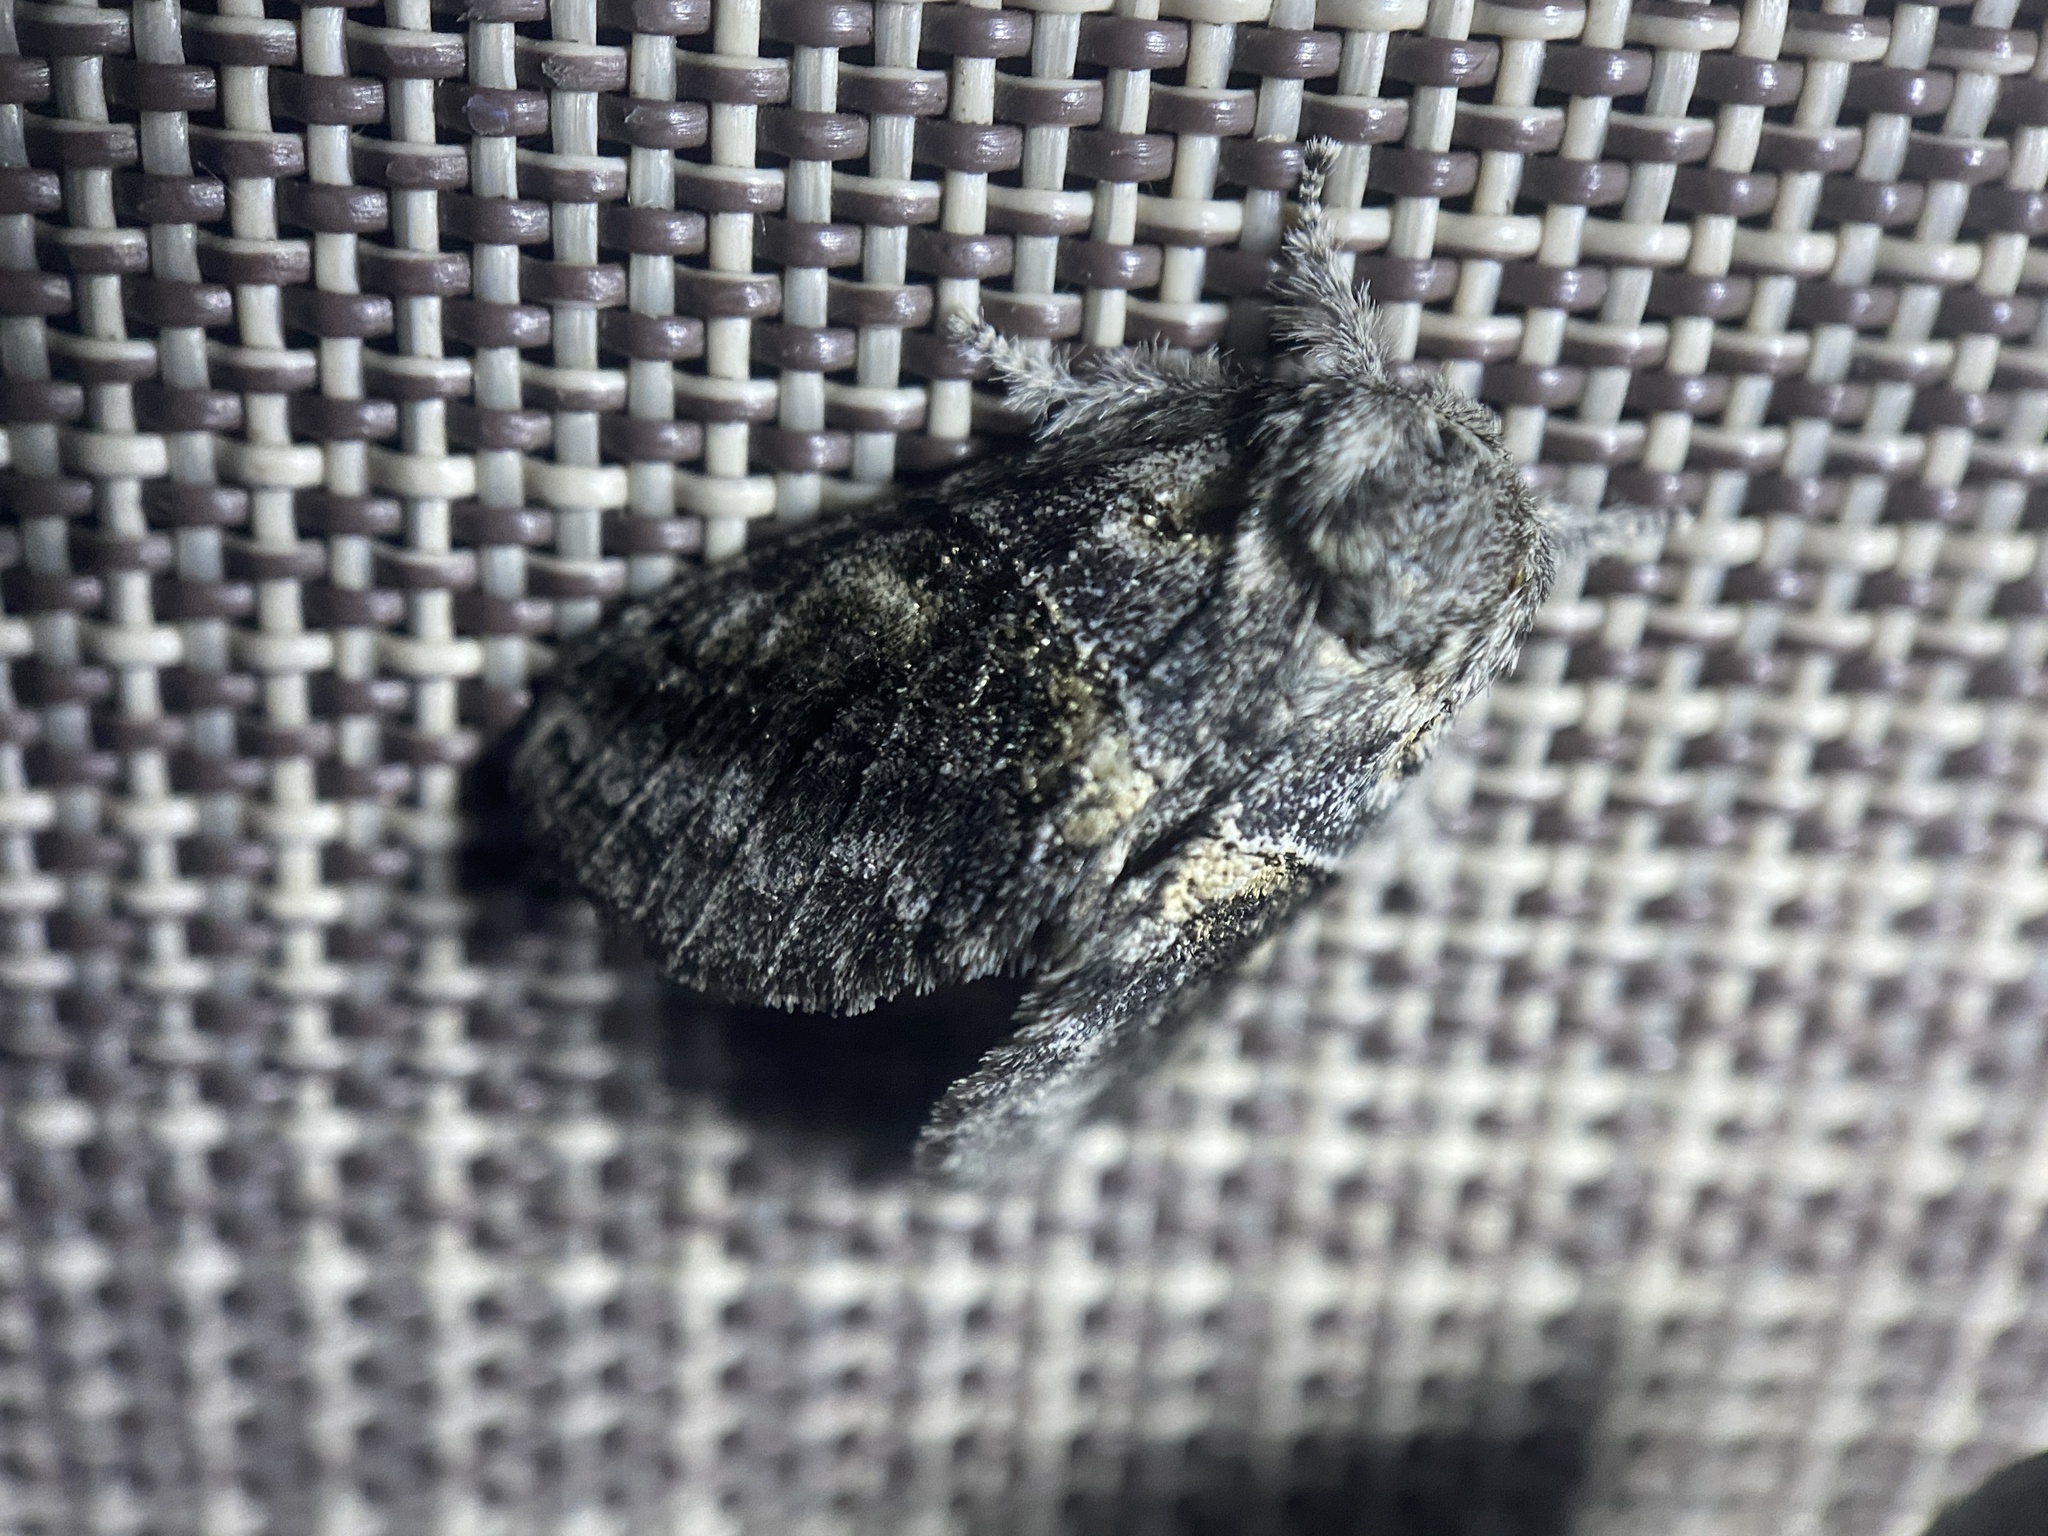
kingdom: Animalia
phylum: Arthropoda
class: Insecta
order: Lepidoptera
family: Notodontidae
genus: Gluphisia
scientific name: Gluphisia septentrionis
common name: Common gluphisia
